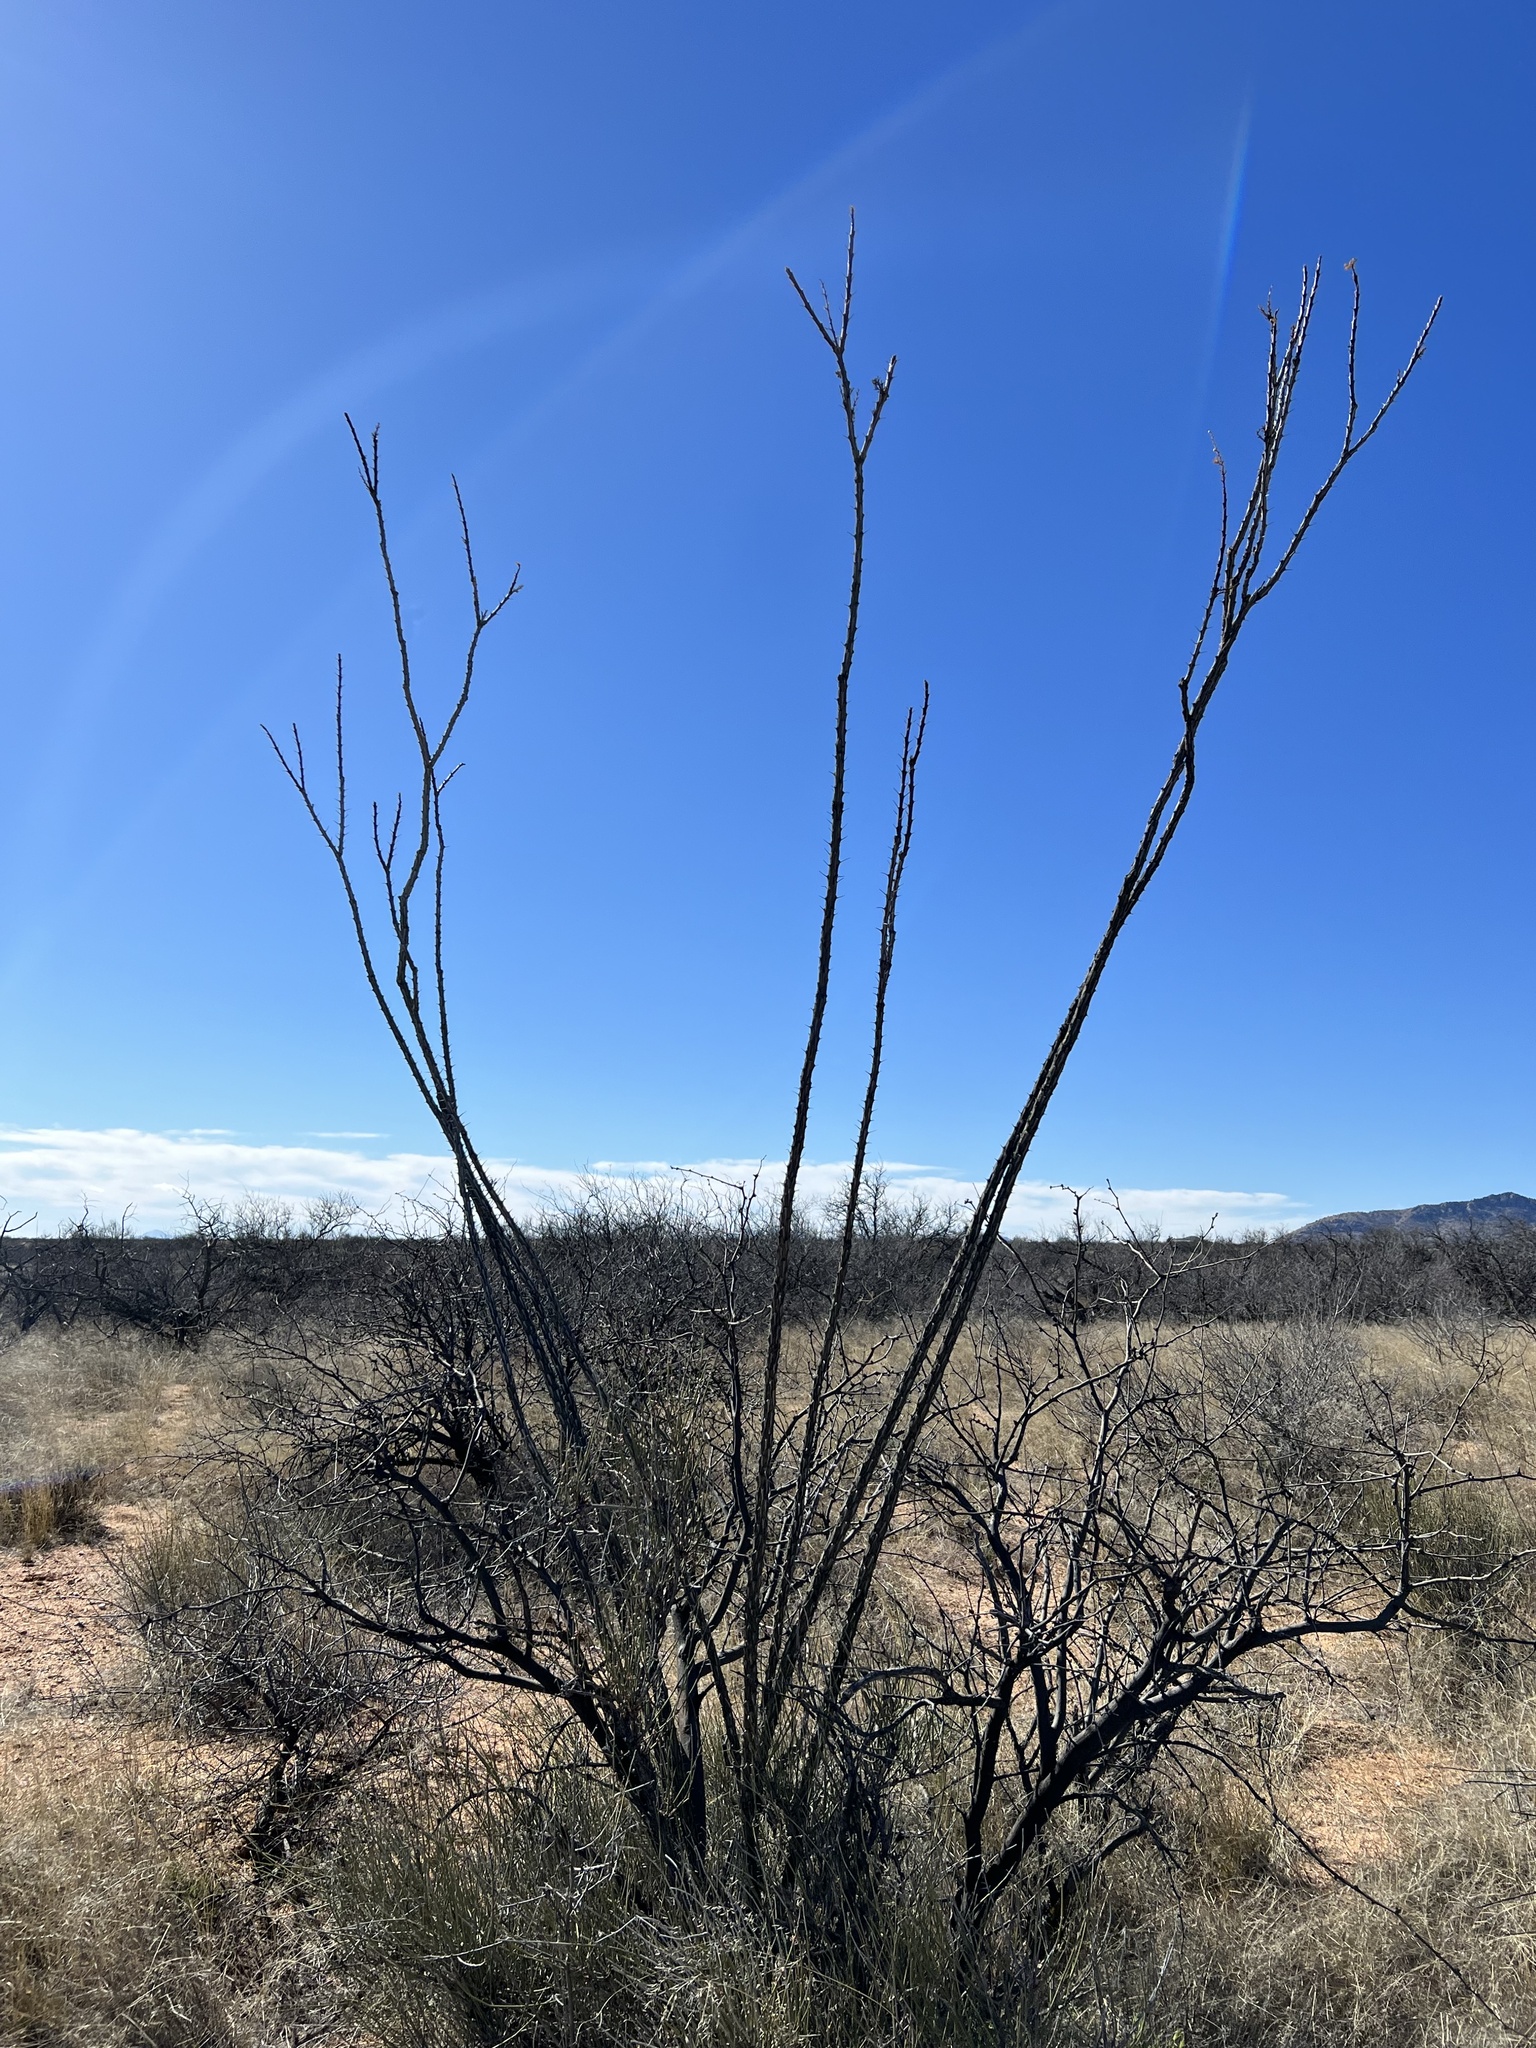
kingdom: Plantae
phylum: Tracheophyta
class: Magnoliopsida
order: Ericales
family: Fouquieriaceae
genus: Fouquieria
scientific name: Fouquieria splendens
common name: Vine-cactus
